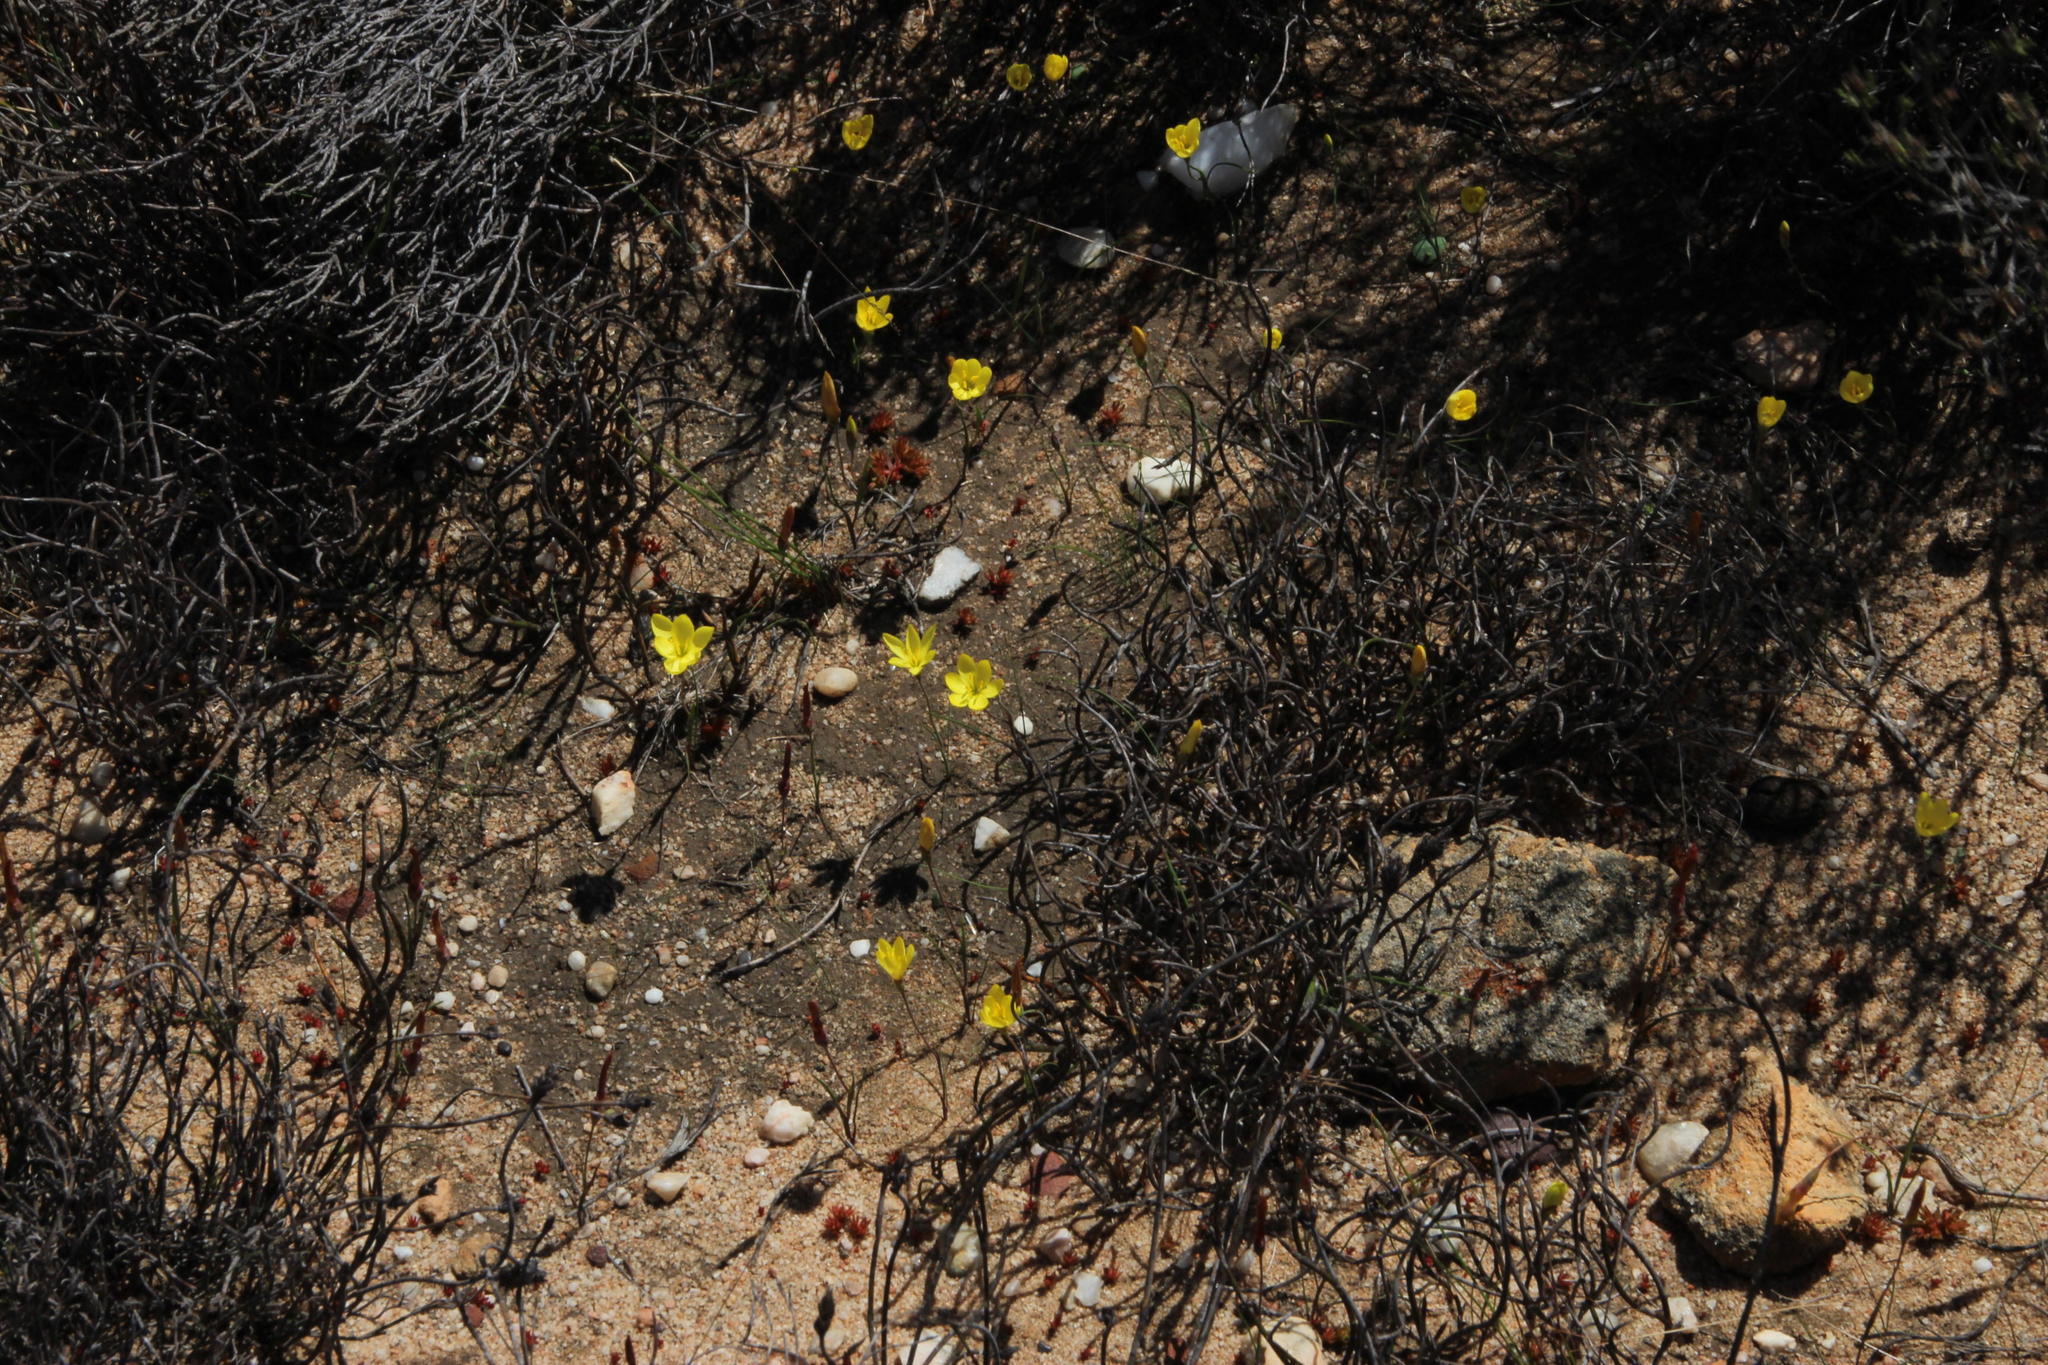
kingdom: Plantae
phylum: Tracheophyta
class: Liliopsida
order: Asparagales
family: Iridaceae
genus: Geissorhiza
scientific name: Geissorhiza ornithogaloides
